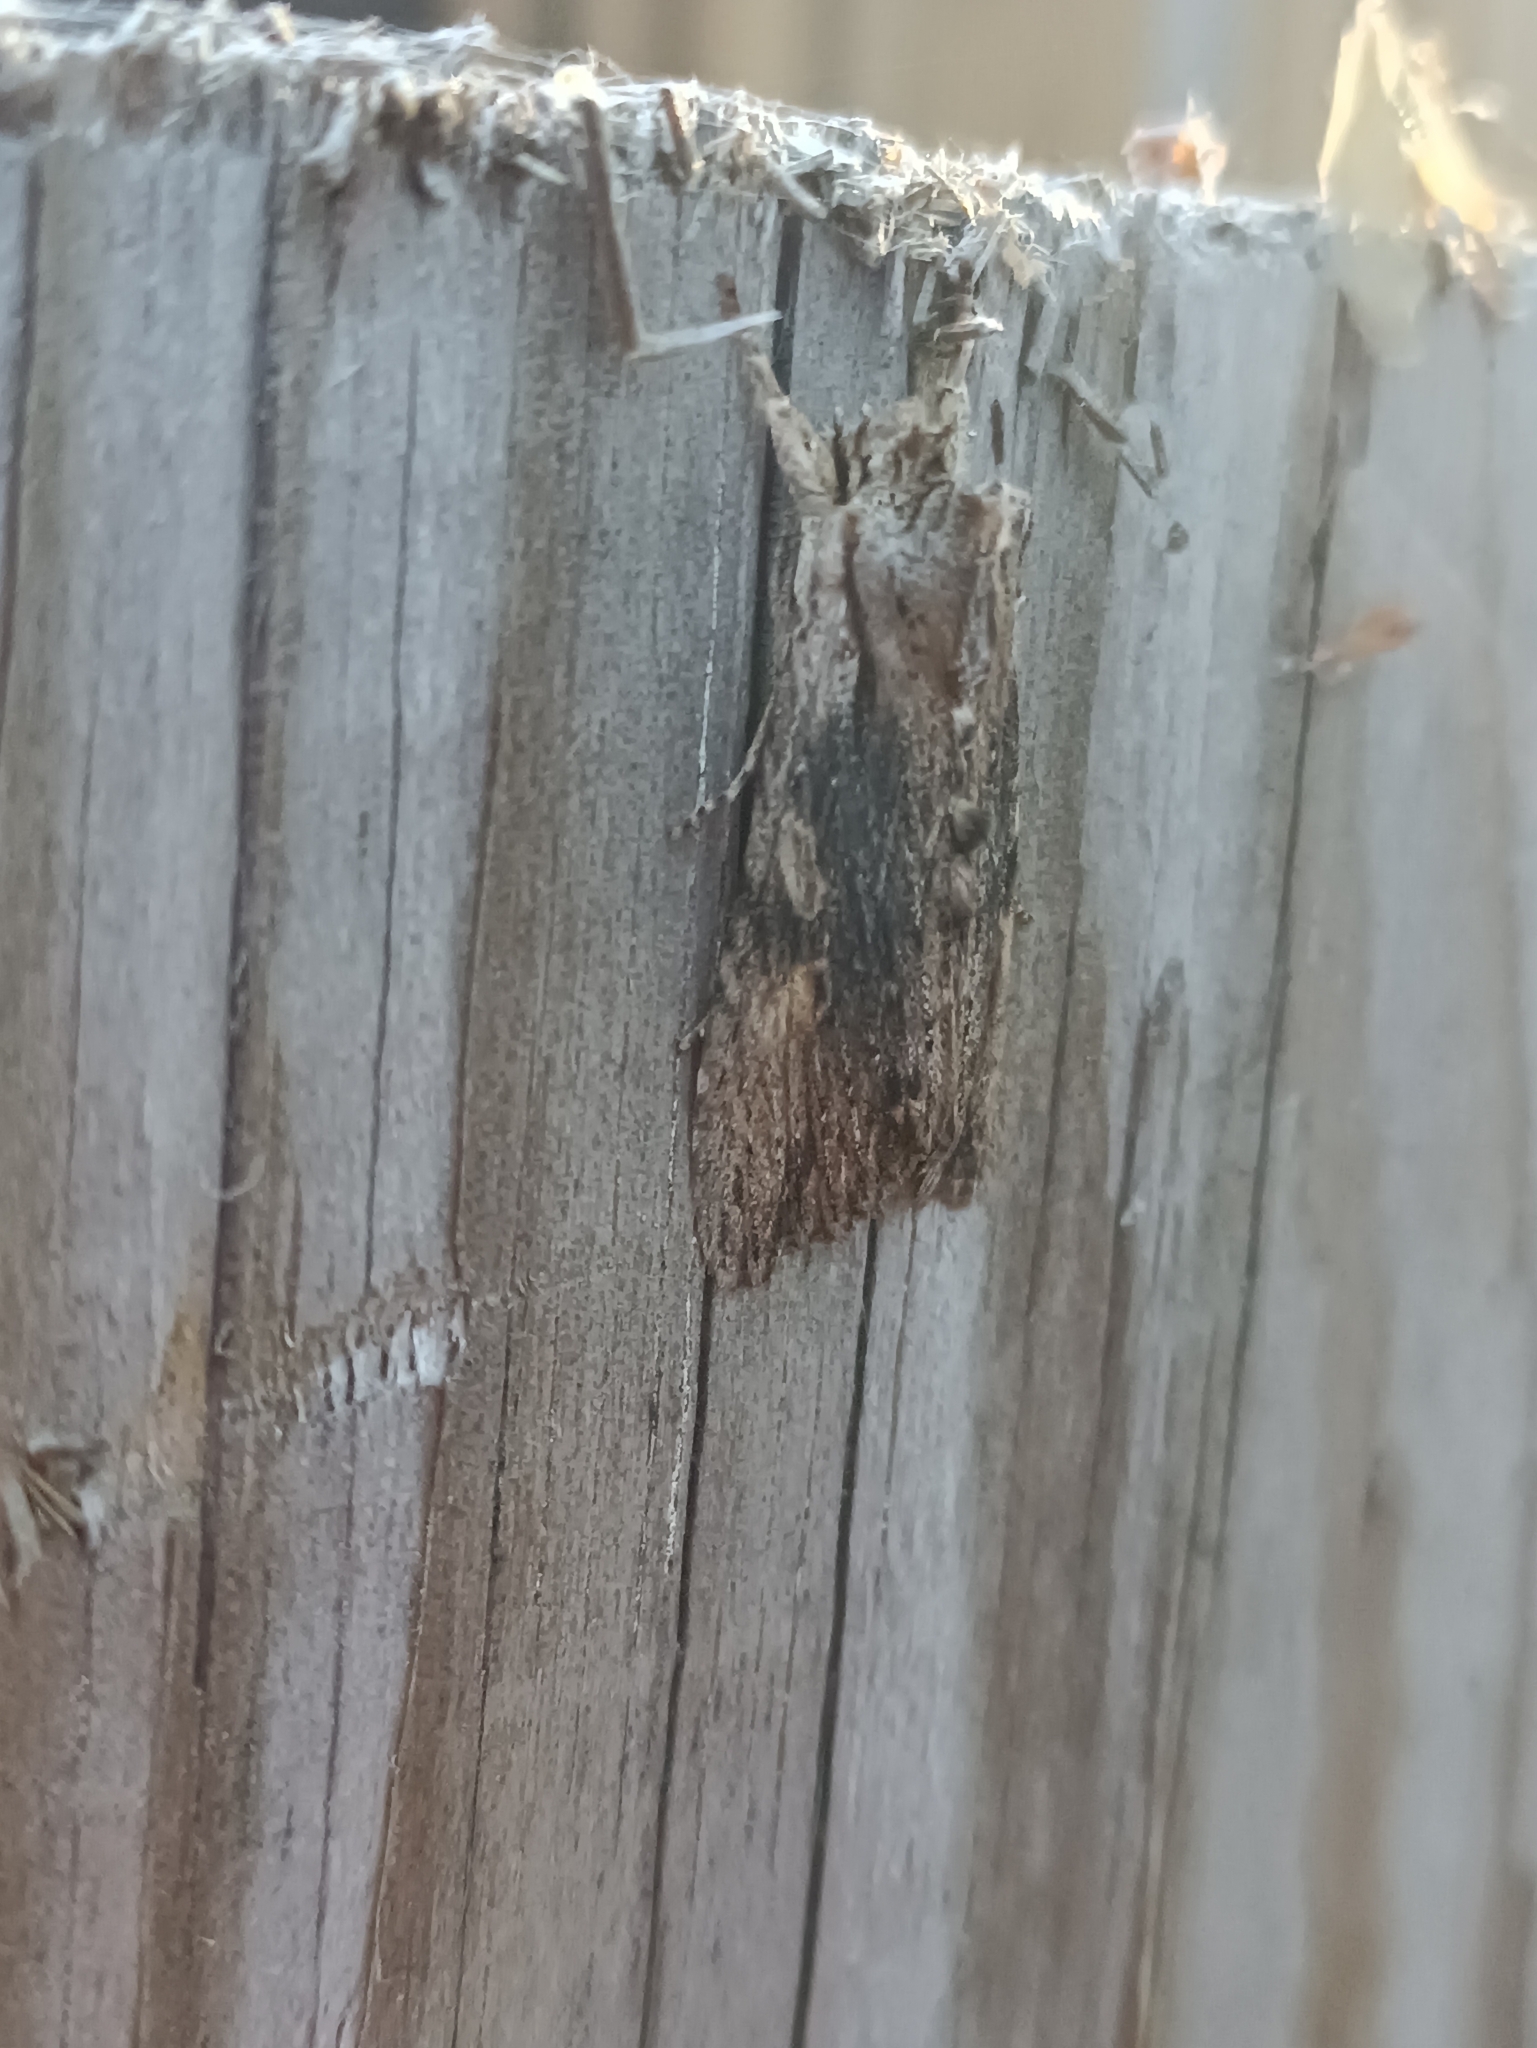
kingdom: Animalia
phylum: Arthropoda
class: Insecta
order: Lepidoptera
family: Noctuidae
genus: Lithophane
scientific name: Lithophane socia
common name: Pale pinion
